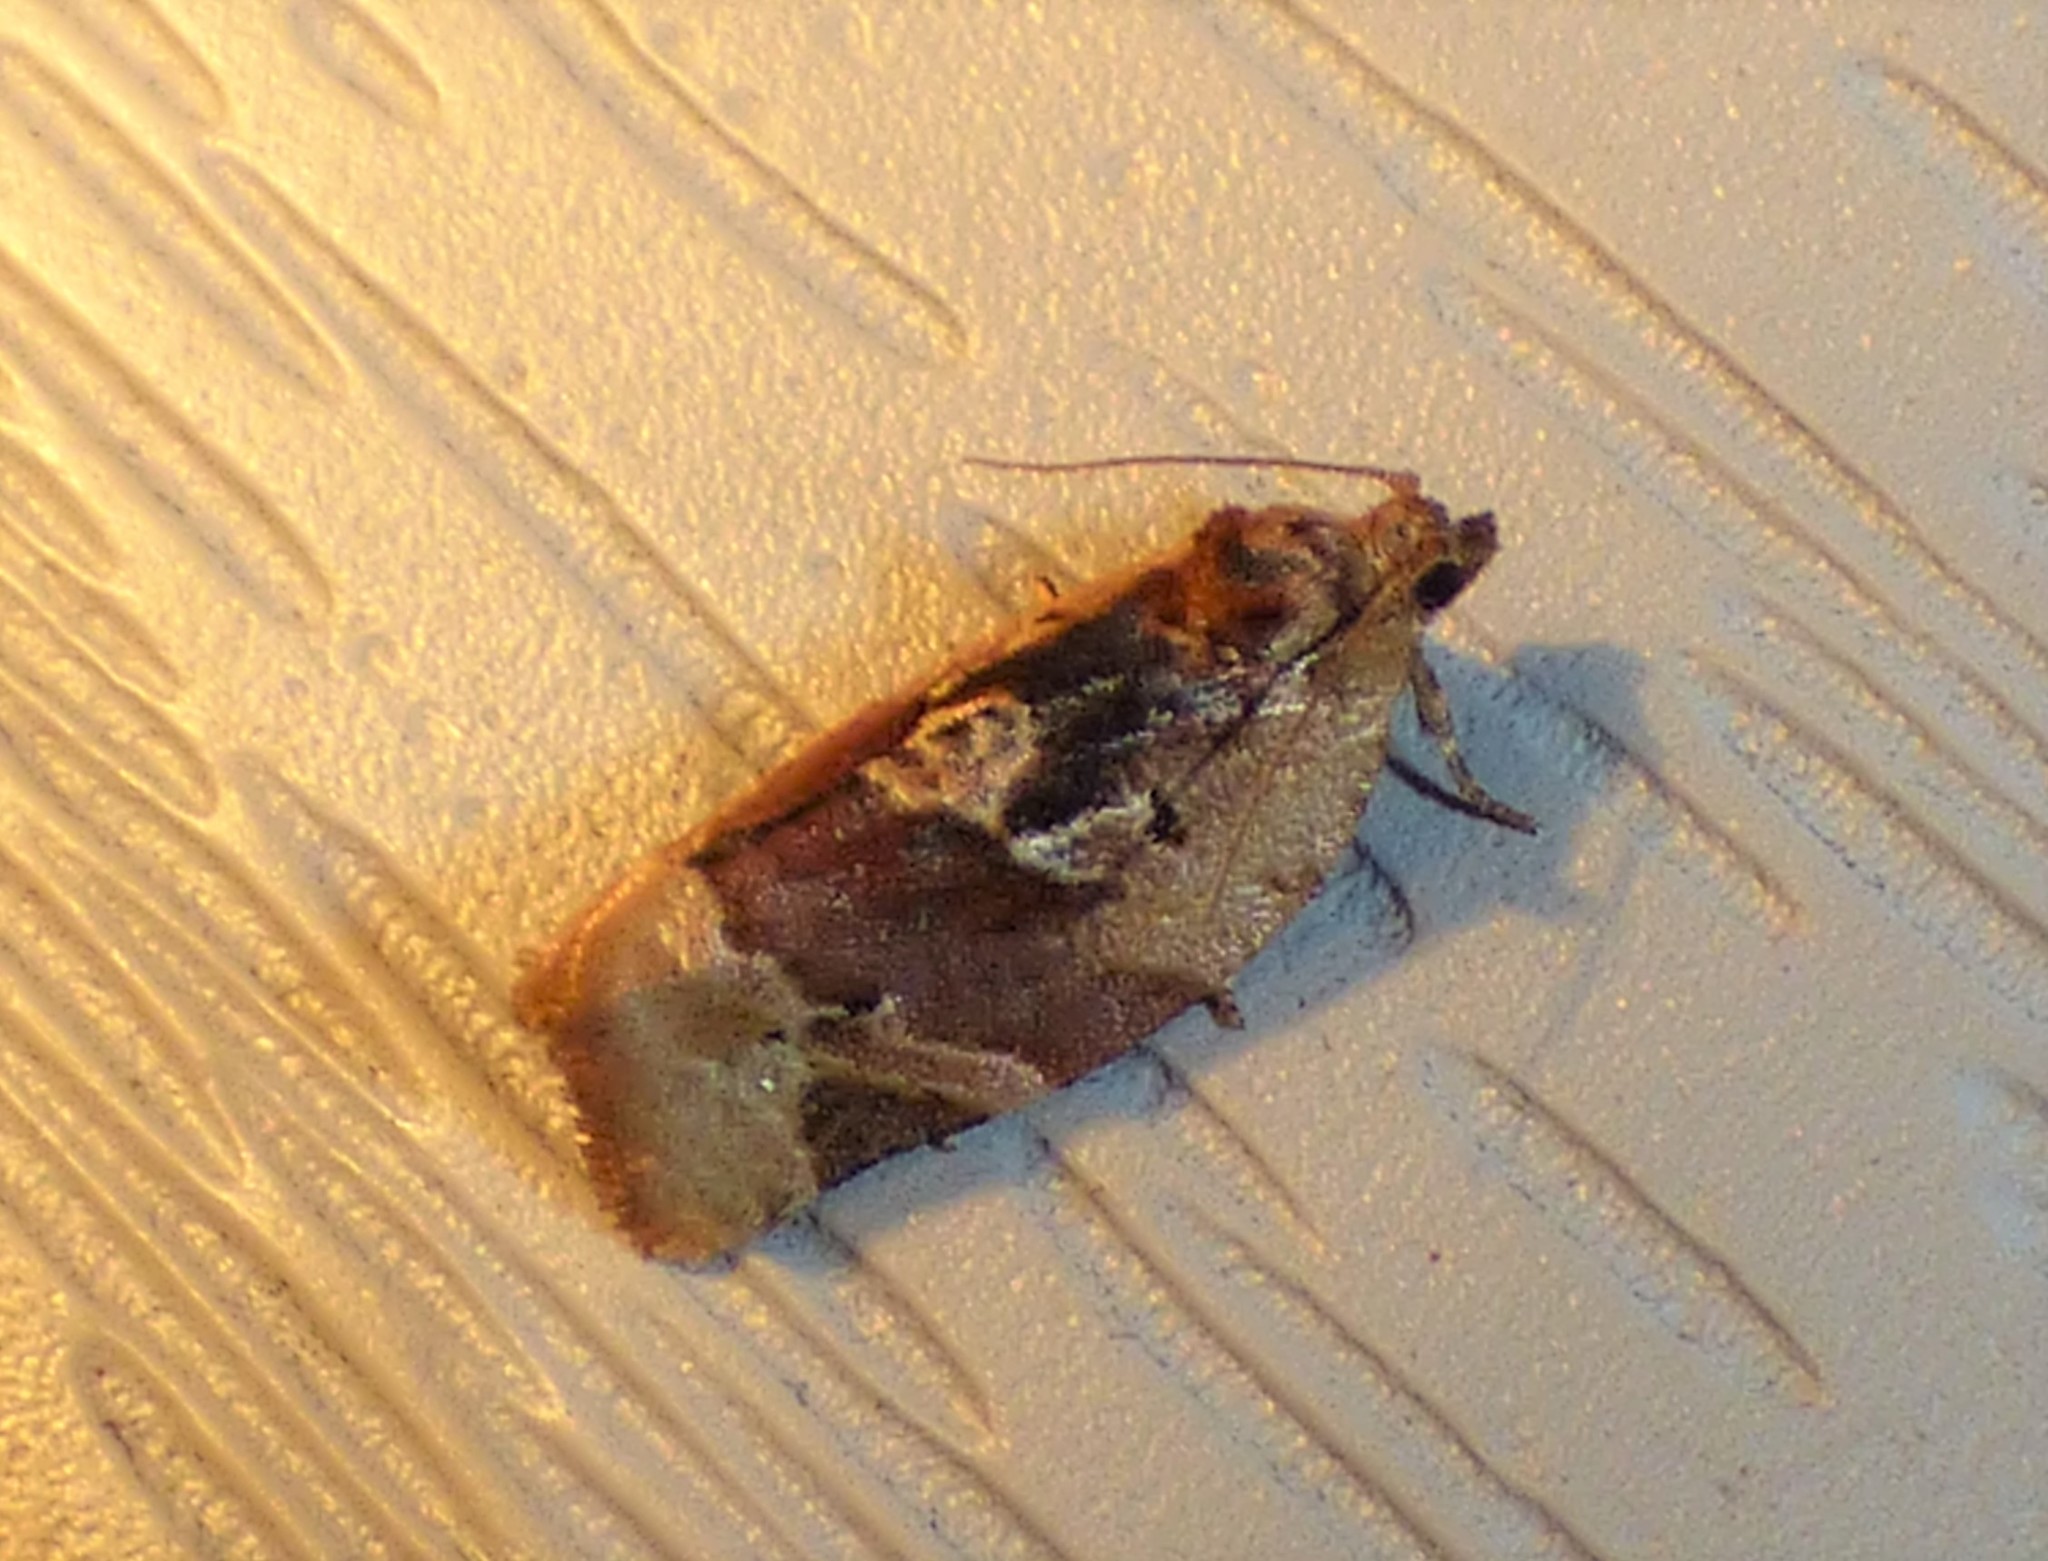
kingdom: Animalia
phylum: Arthropoda
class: Insecta
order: Lepidoptera
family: Tortricidae
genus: Argyrotaenia
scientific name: Argyrotaenia velutinana
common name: Red-banded leafroller moth
